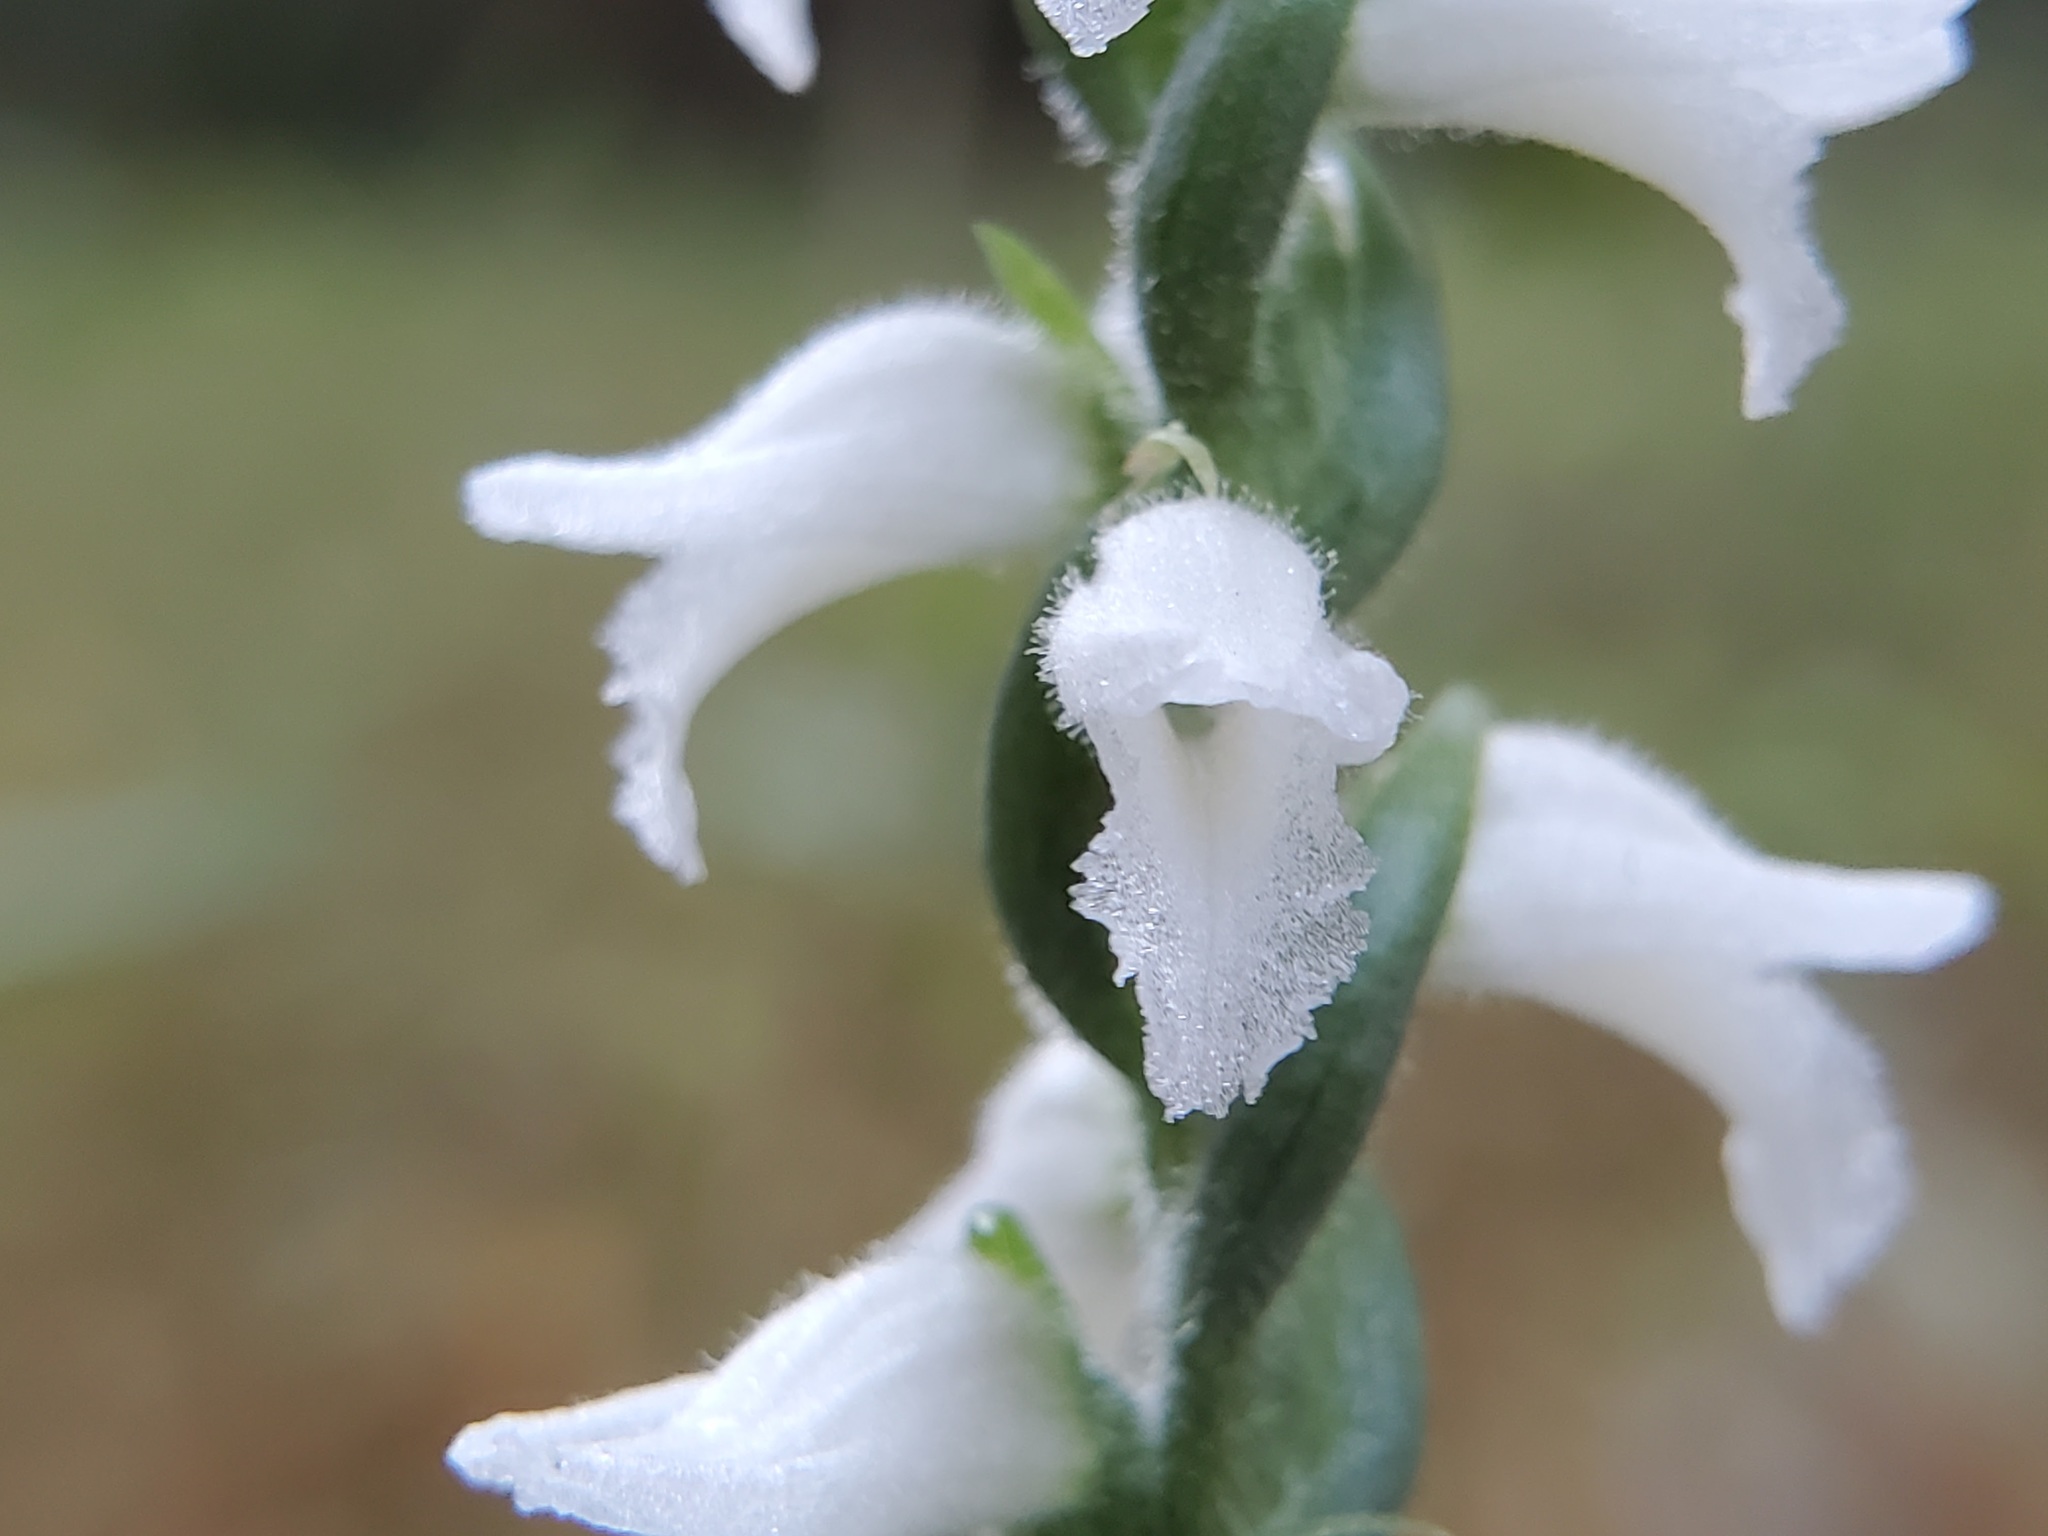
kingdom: Plantae
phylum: Tracheophyta
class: Liliopsida
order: Asparagales
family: Orchidaceae
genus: Spiranthes
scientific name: Spiranthes cernua
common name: Dropping ladies'-tresses
